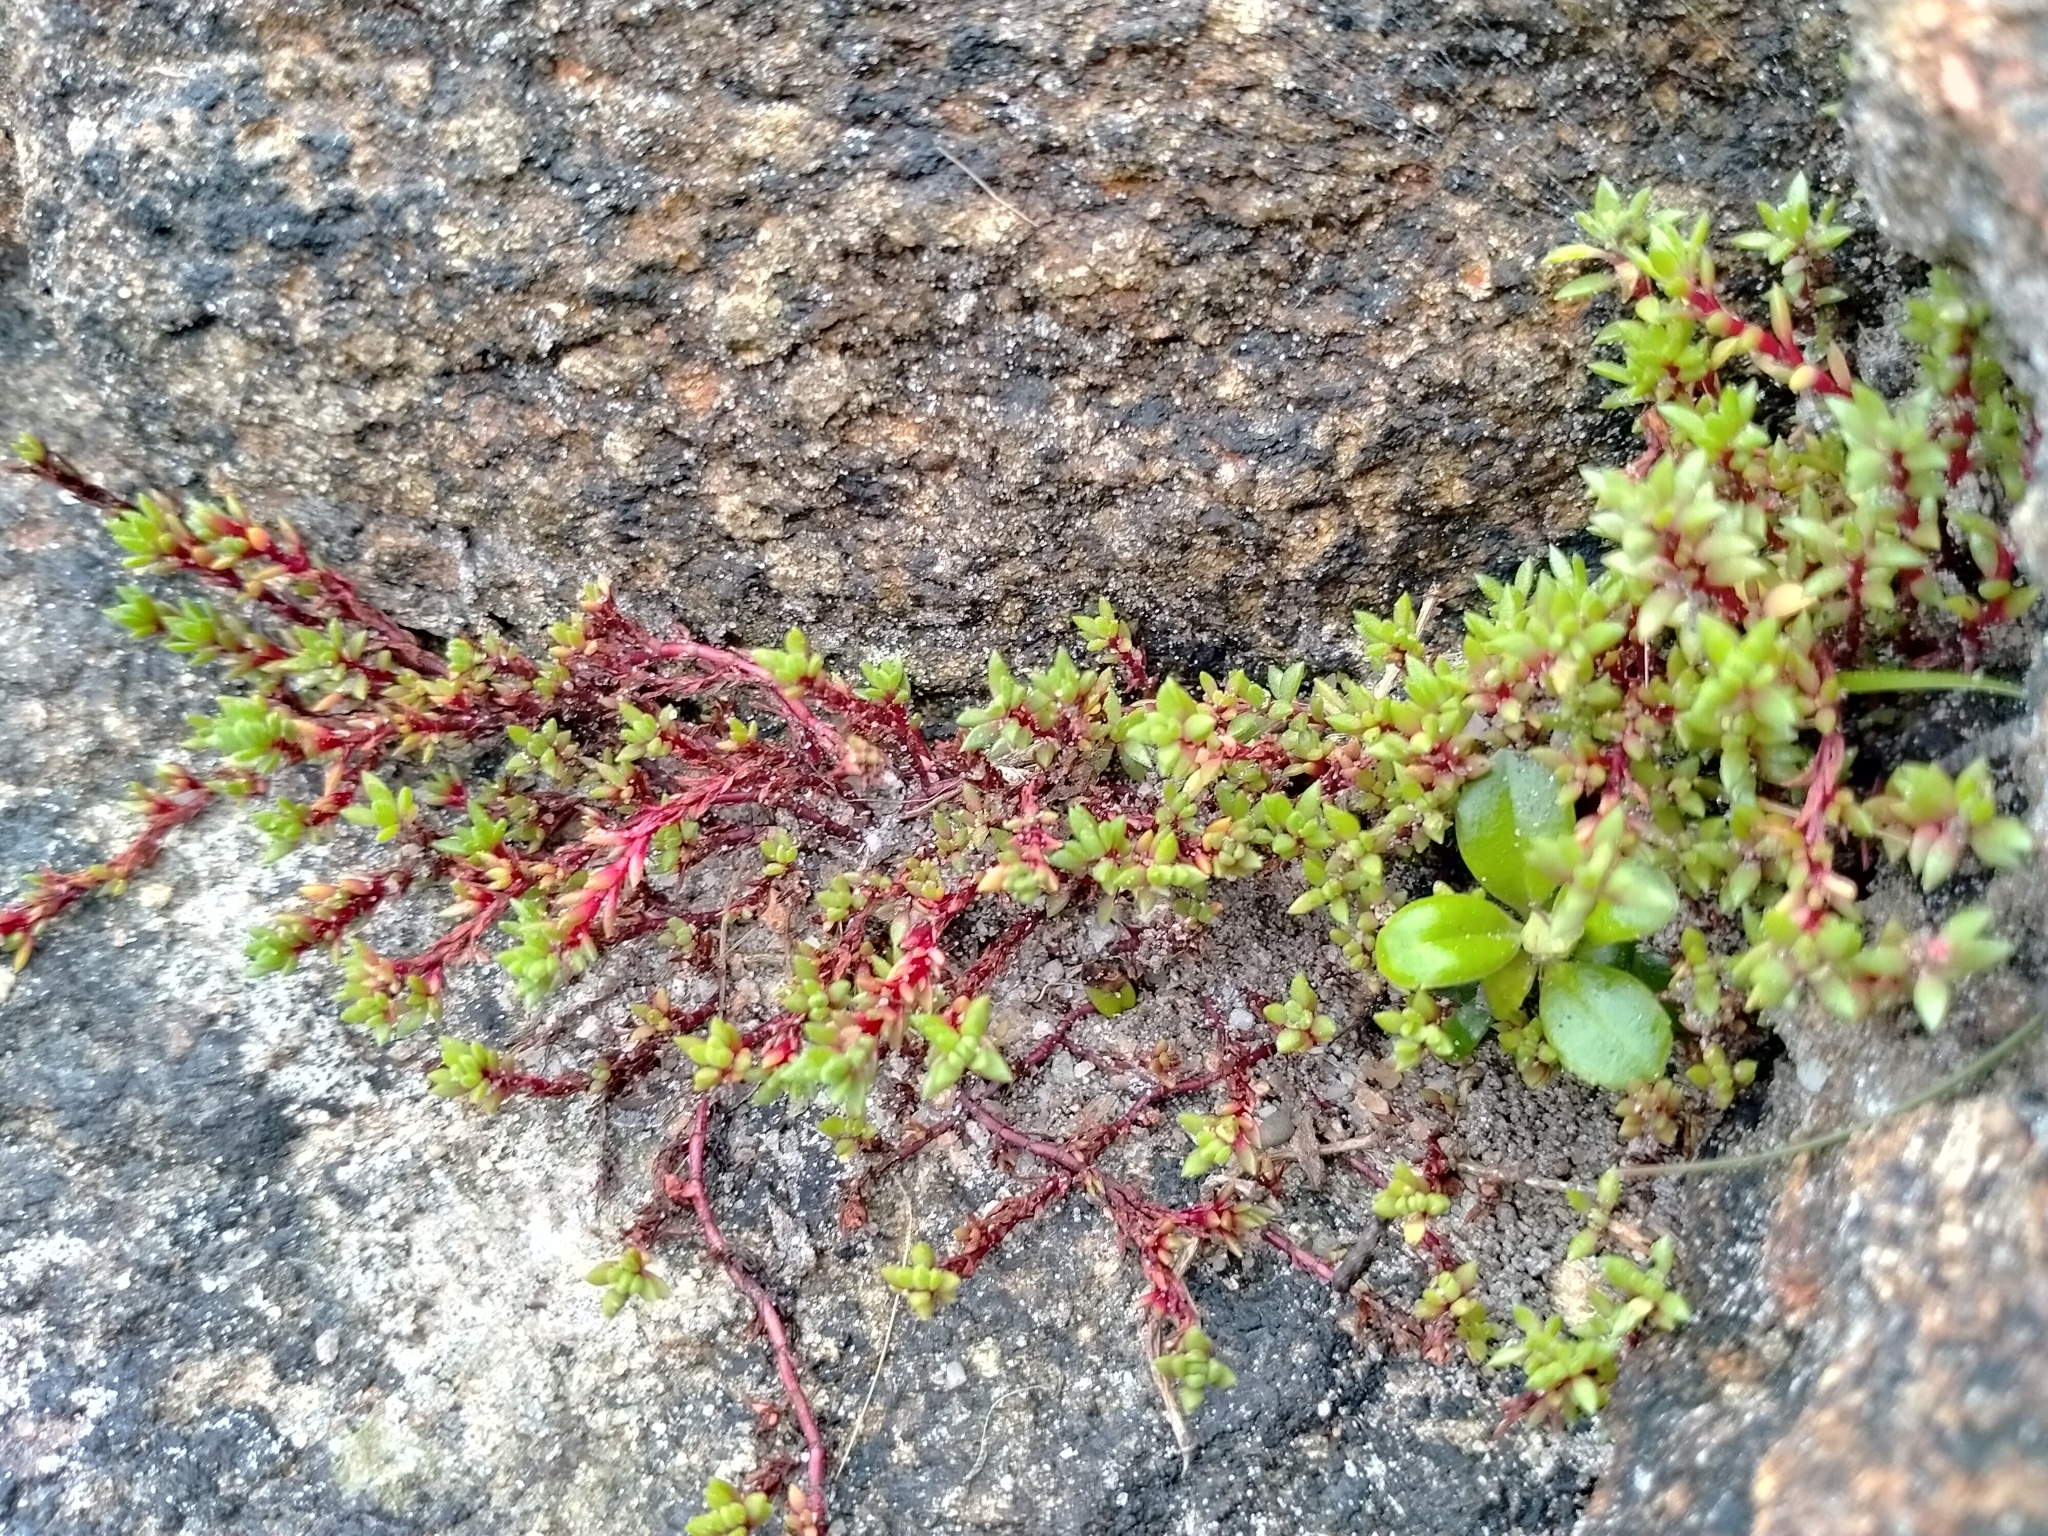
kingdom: Plantae
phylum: Tracheophyta
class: Magnoliopsida
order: Saxifragales
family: Crassulaceae
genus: Crassula
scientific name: Crassula moschata
